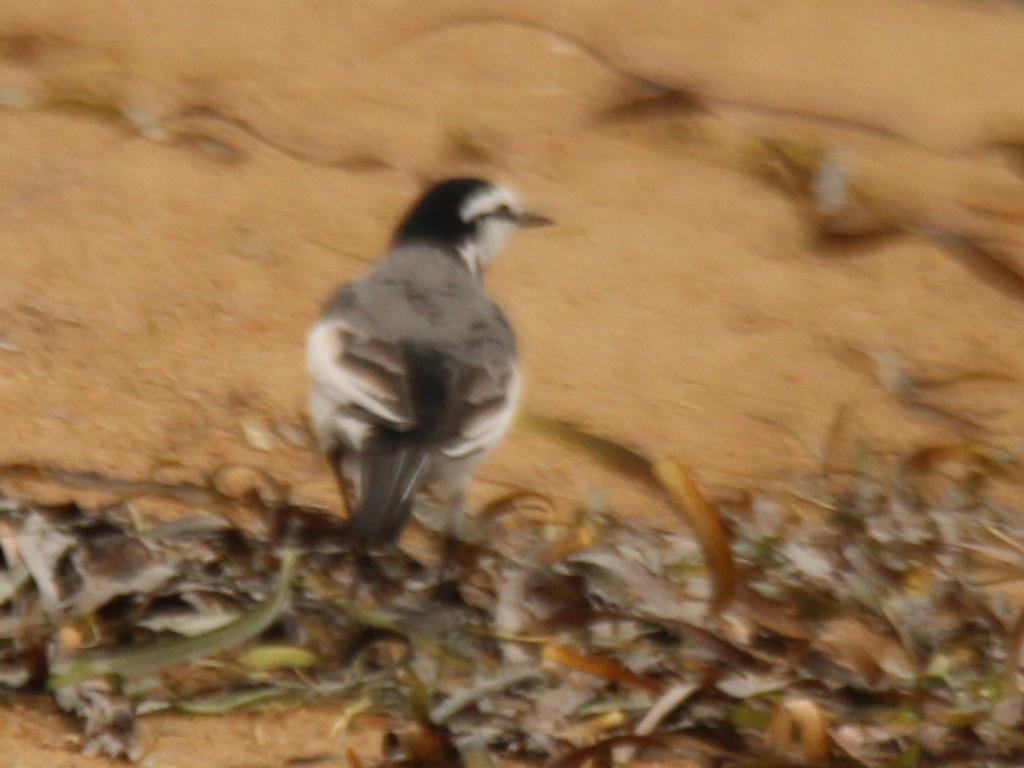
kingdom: Animalia
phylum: Chordata
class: Aves
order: Passeriformes
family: Motacillidae
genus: Motacilla
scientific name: Motacilla alba
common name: White wagtail
